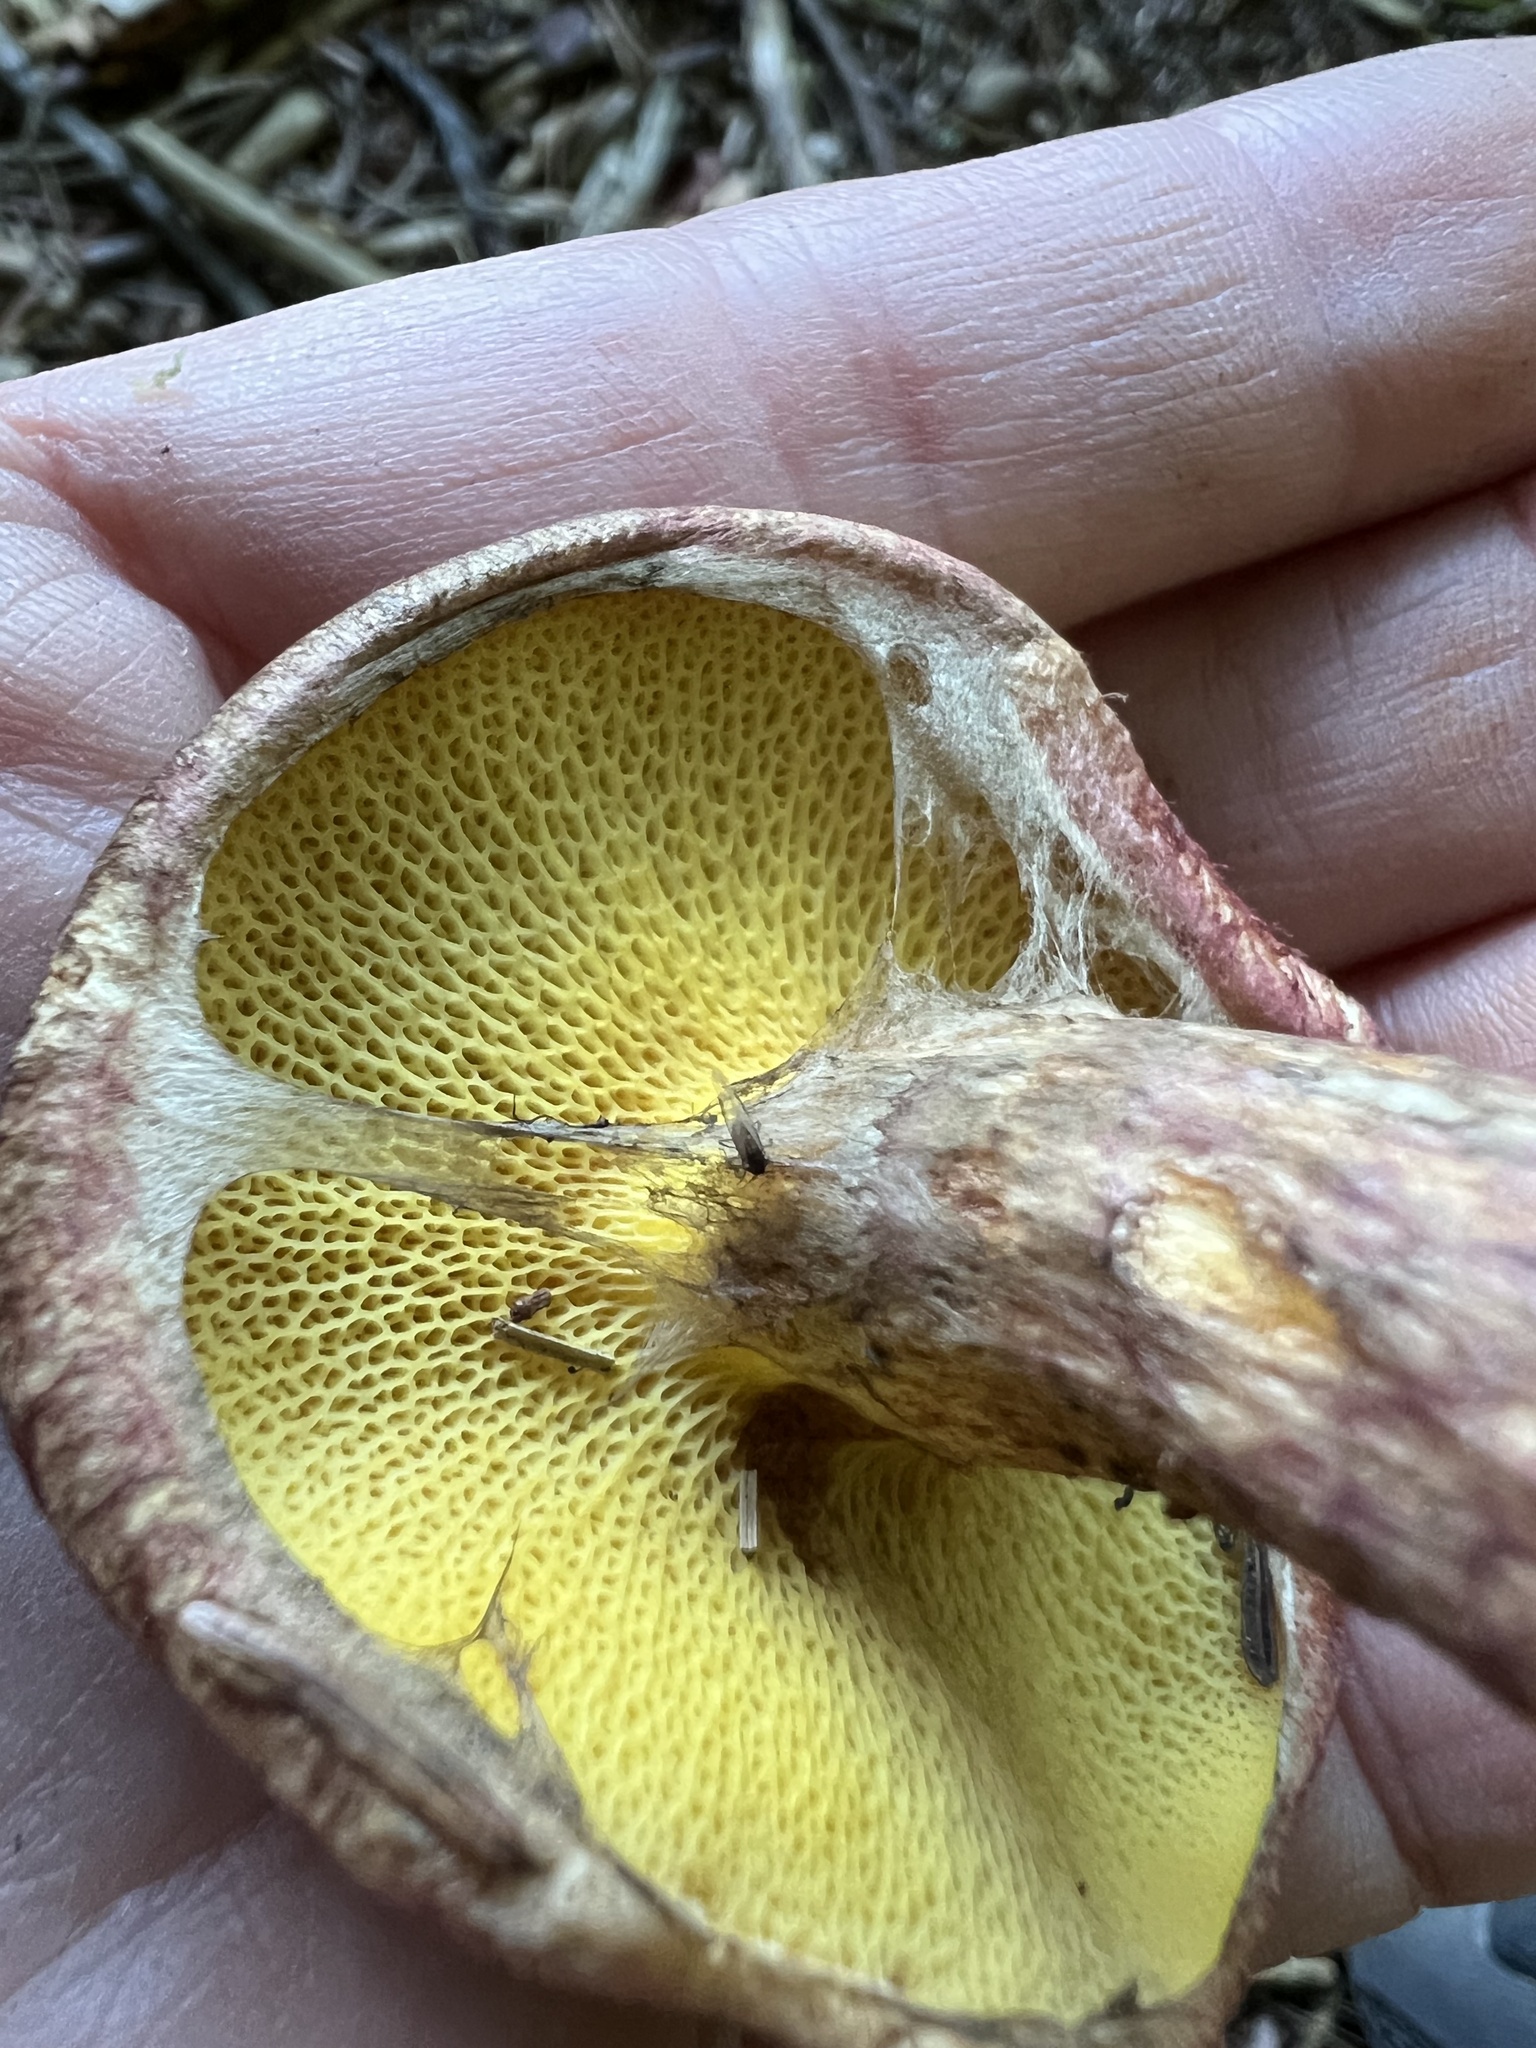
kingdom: Fungi
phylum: Basidiomycota
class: Agaricomycetes
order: Boletales
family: Suillaceae
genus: Suillus
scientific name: Suillus spraguei
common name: Painted suillus
